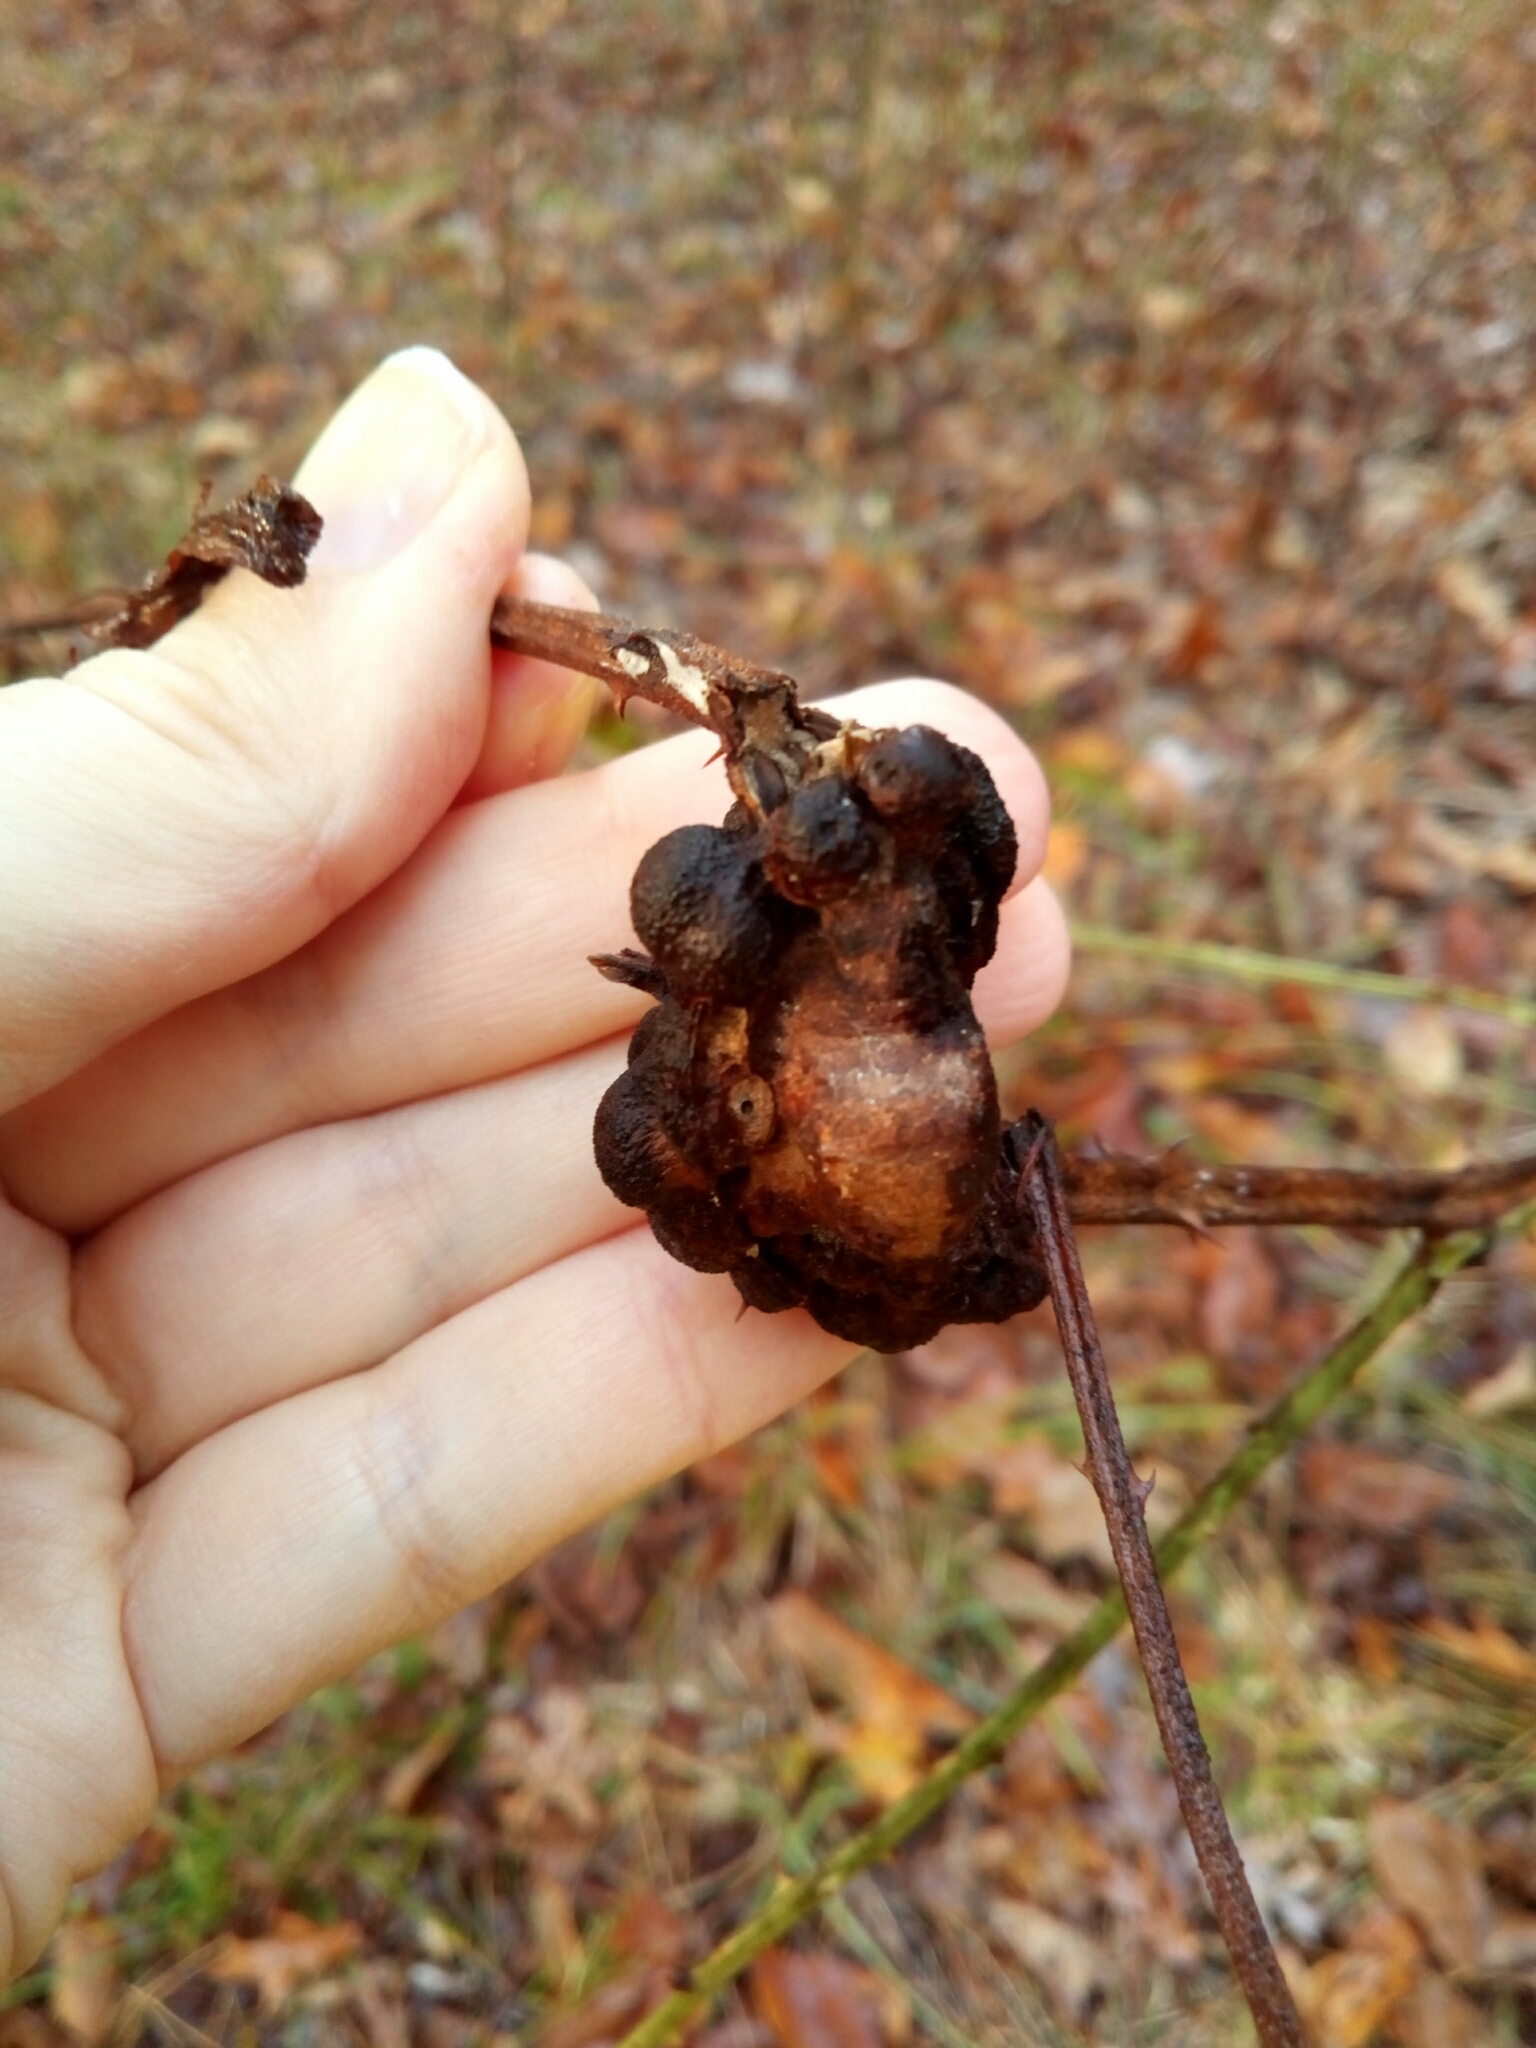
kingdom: Animalia
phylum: Arthropoda
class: Insecta
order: Hymenoptera
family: Cynipidae
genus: Diastrophus
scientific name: Diastrophus
